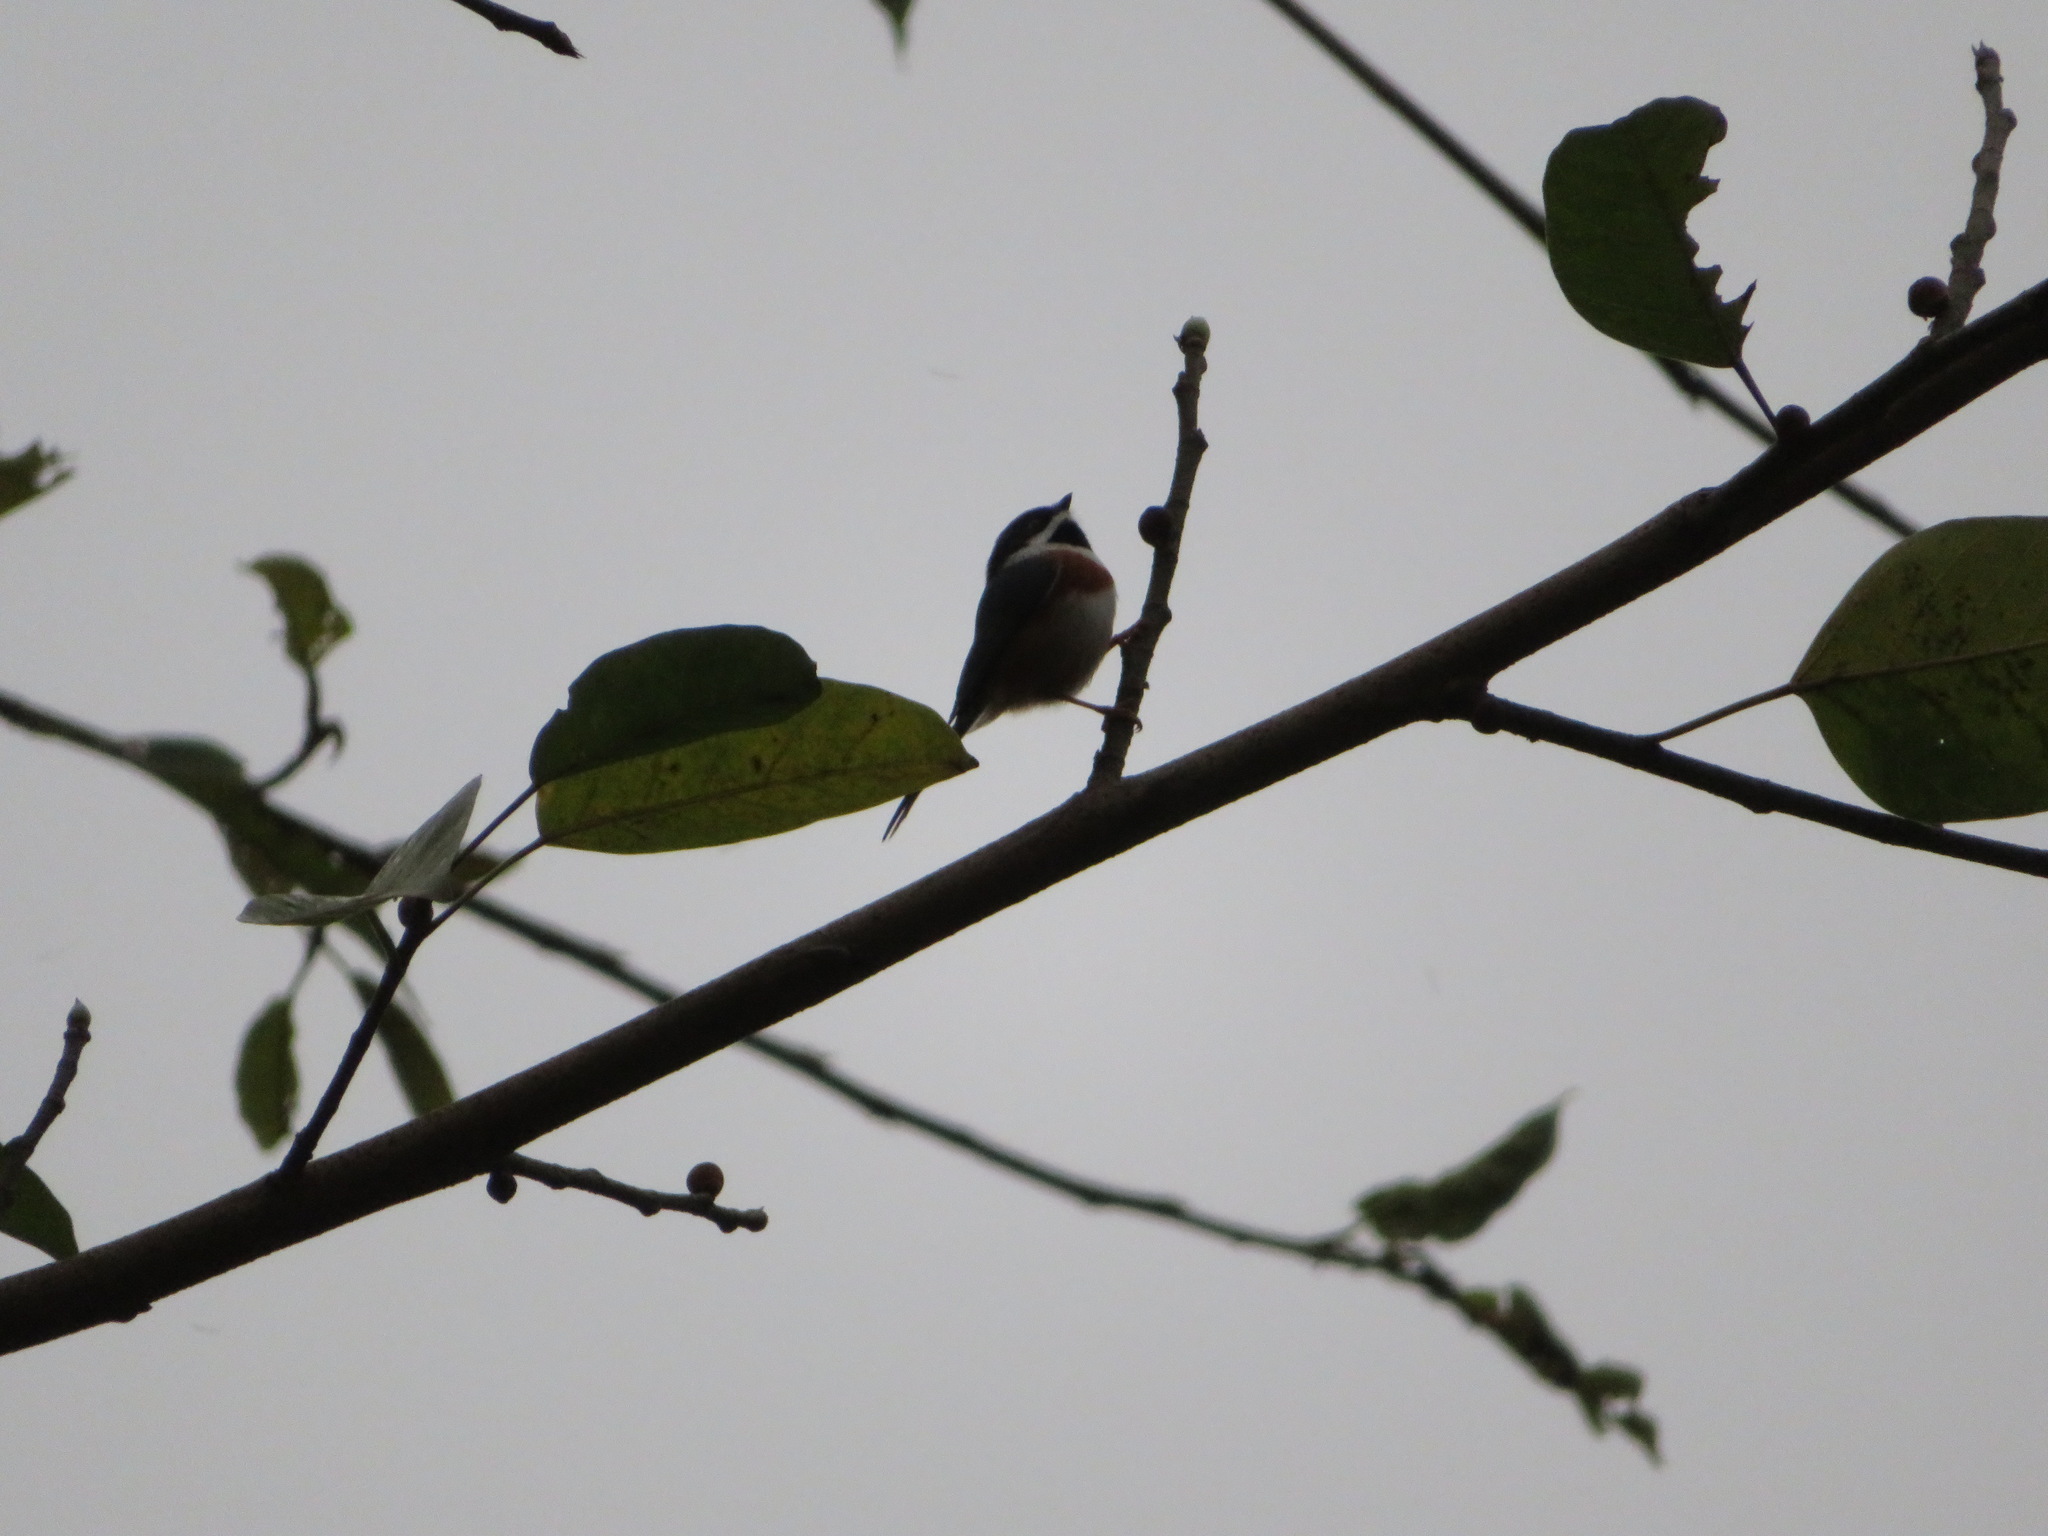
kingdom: Animalia
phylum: Chordata
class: Aves
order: Passeriformes
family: Aegithalidae
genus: Aegithalos
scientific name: Aegithalos concinnus
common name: Black-throated bushtit
